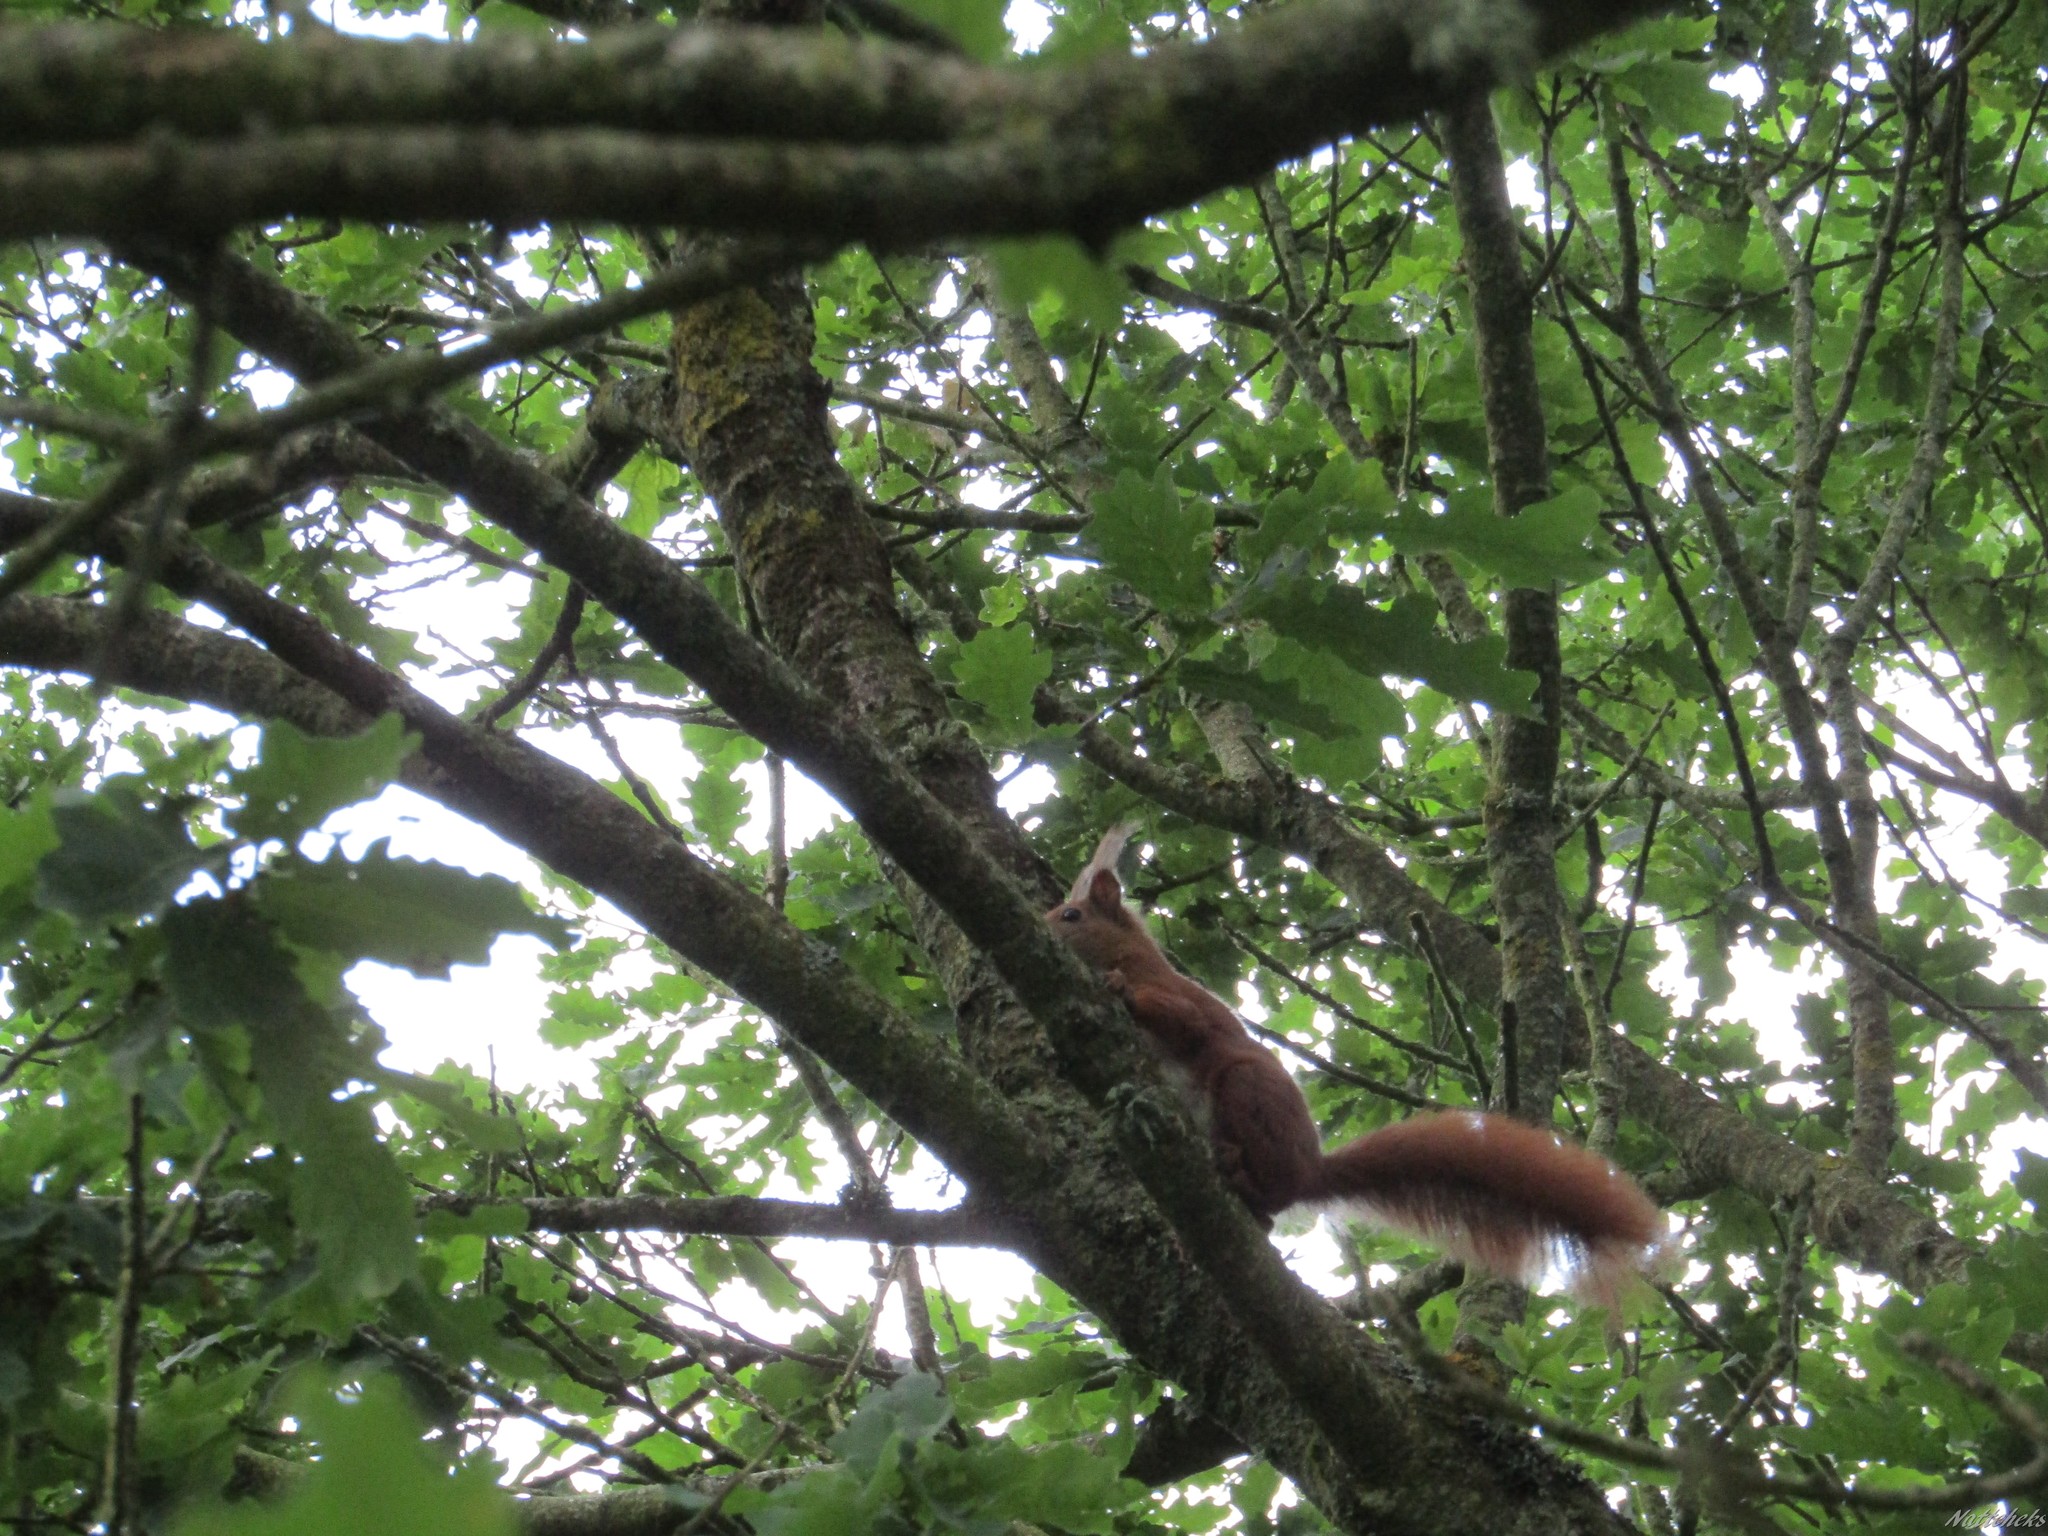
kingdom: Animalia
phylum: Chordata
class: Mammalia
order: Rodentia
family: Sciuridae
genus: Sciurus
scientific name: Sciurus vulgaris
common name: Eurasian red squirrel
